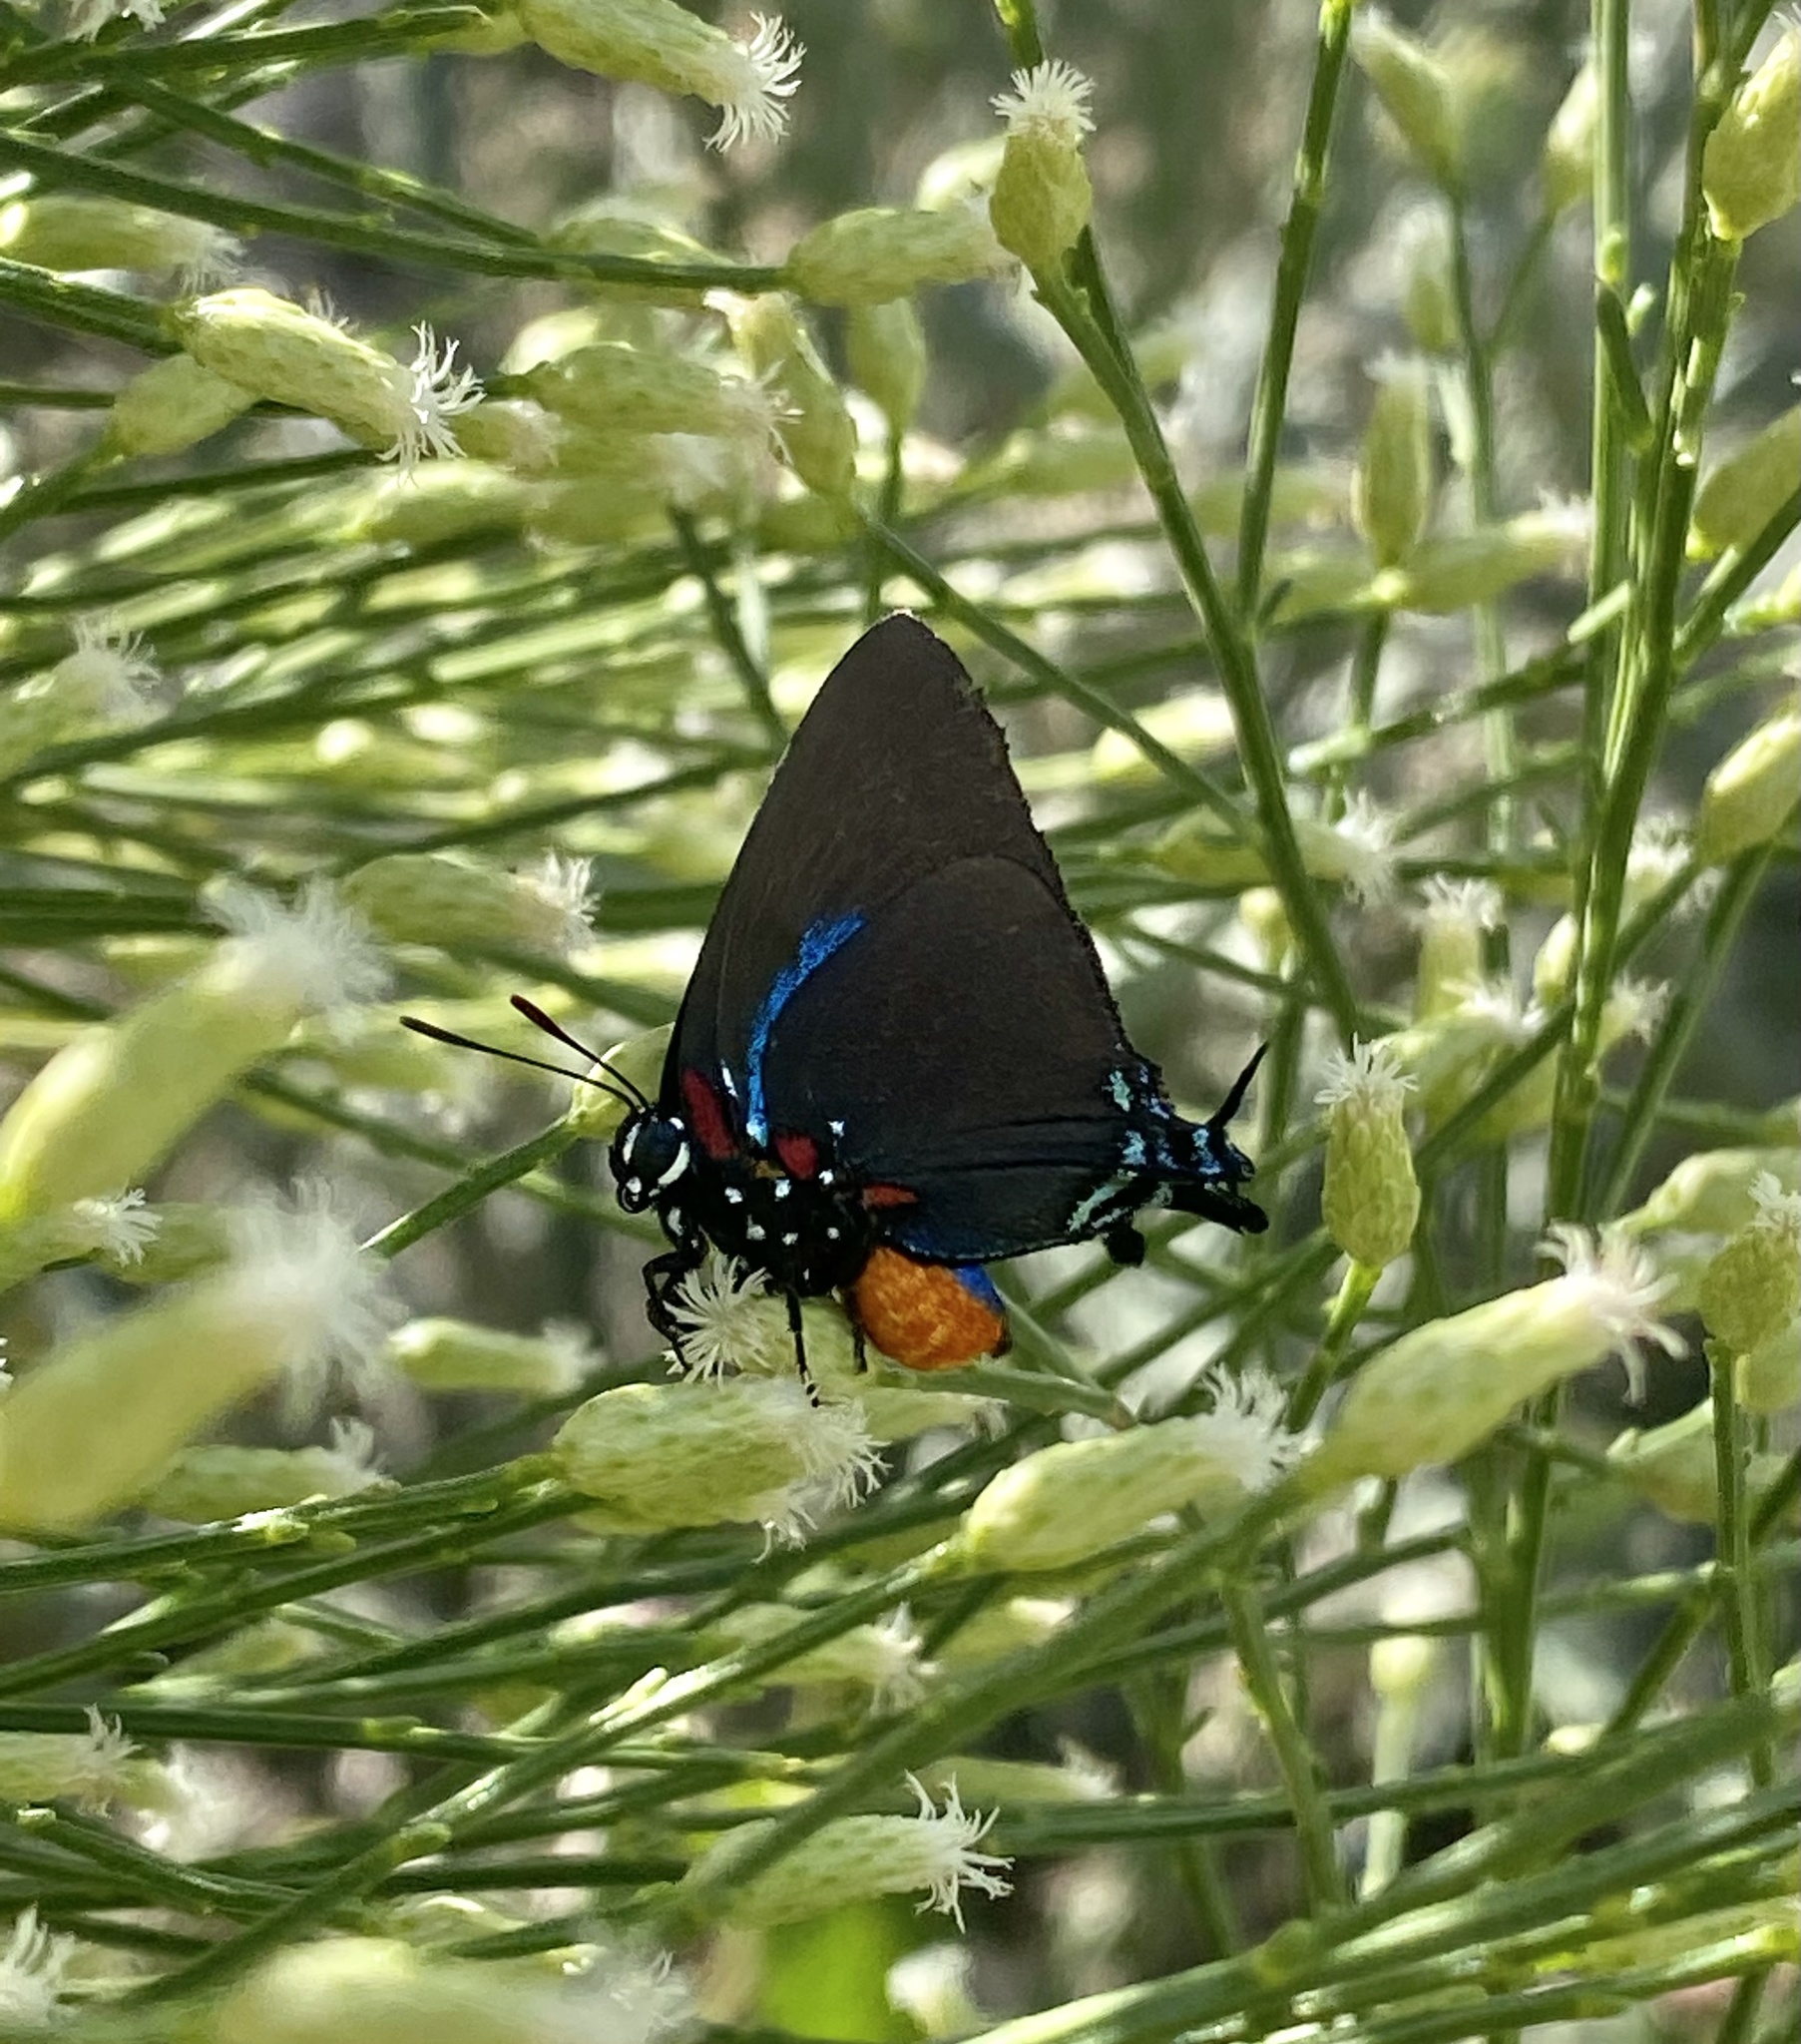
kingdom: Animalia
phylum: Arthropoda
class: Insecta
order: Lepidoptera
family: Lycaenidae
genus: Atlides
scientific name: Atlides halesus
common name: Great purple hairstreak
